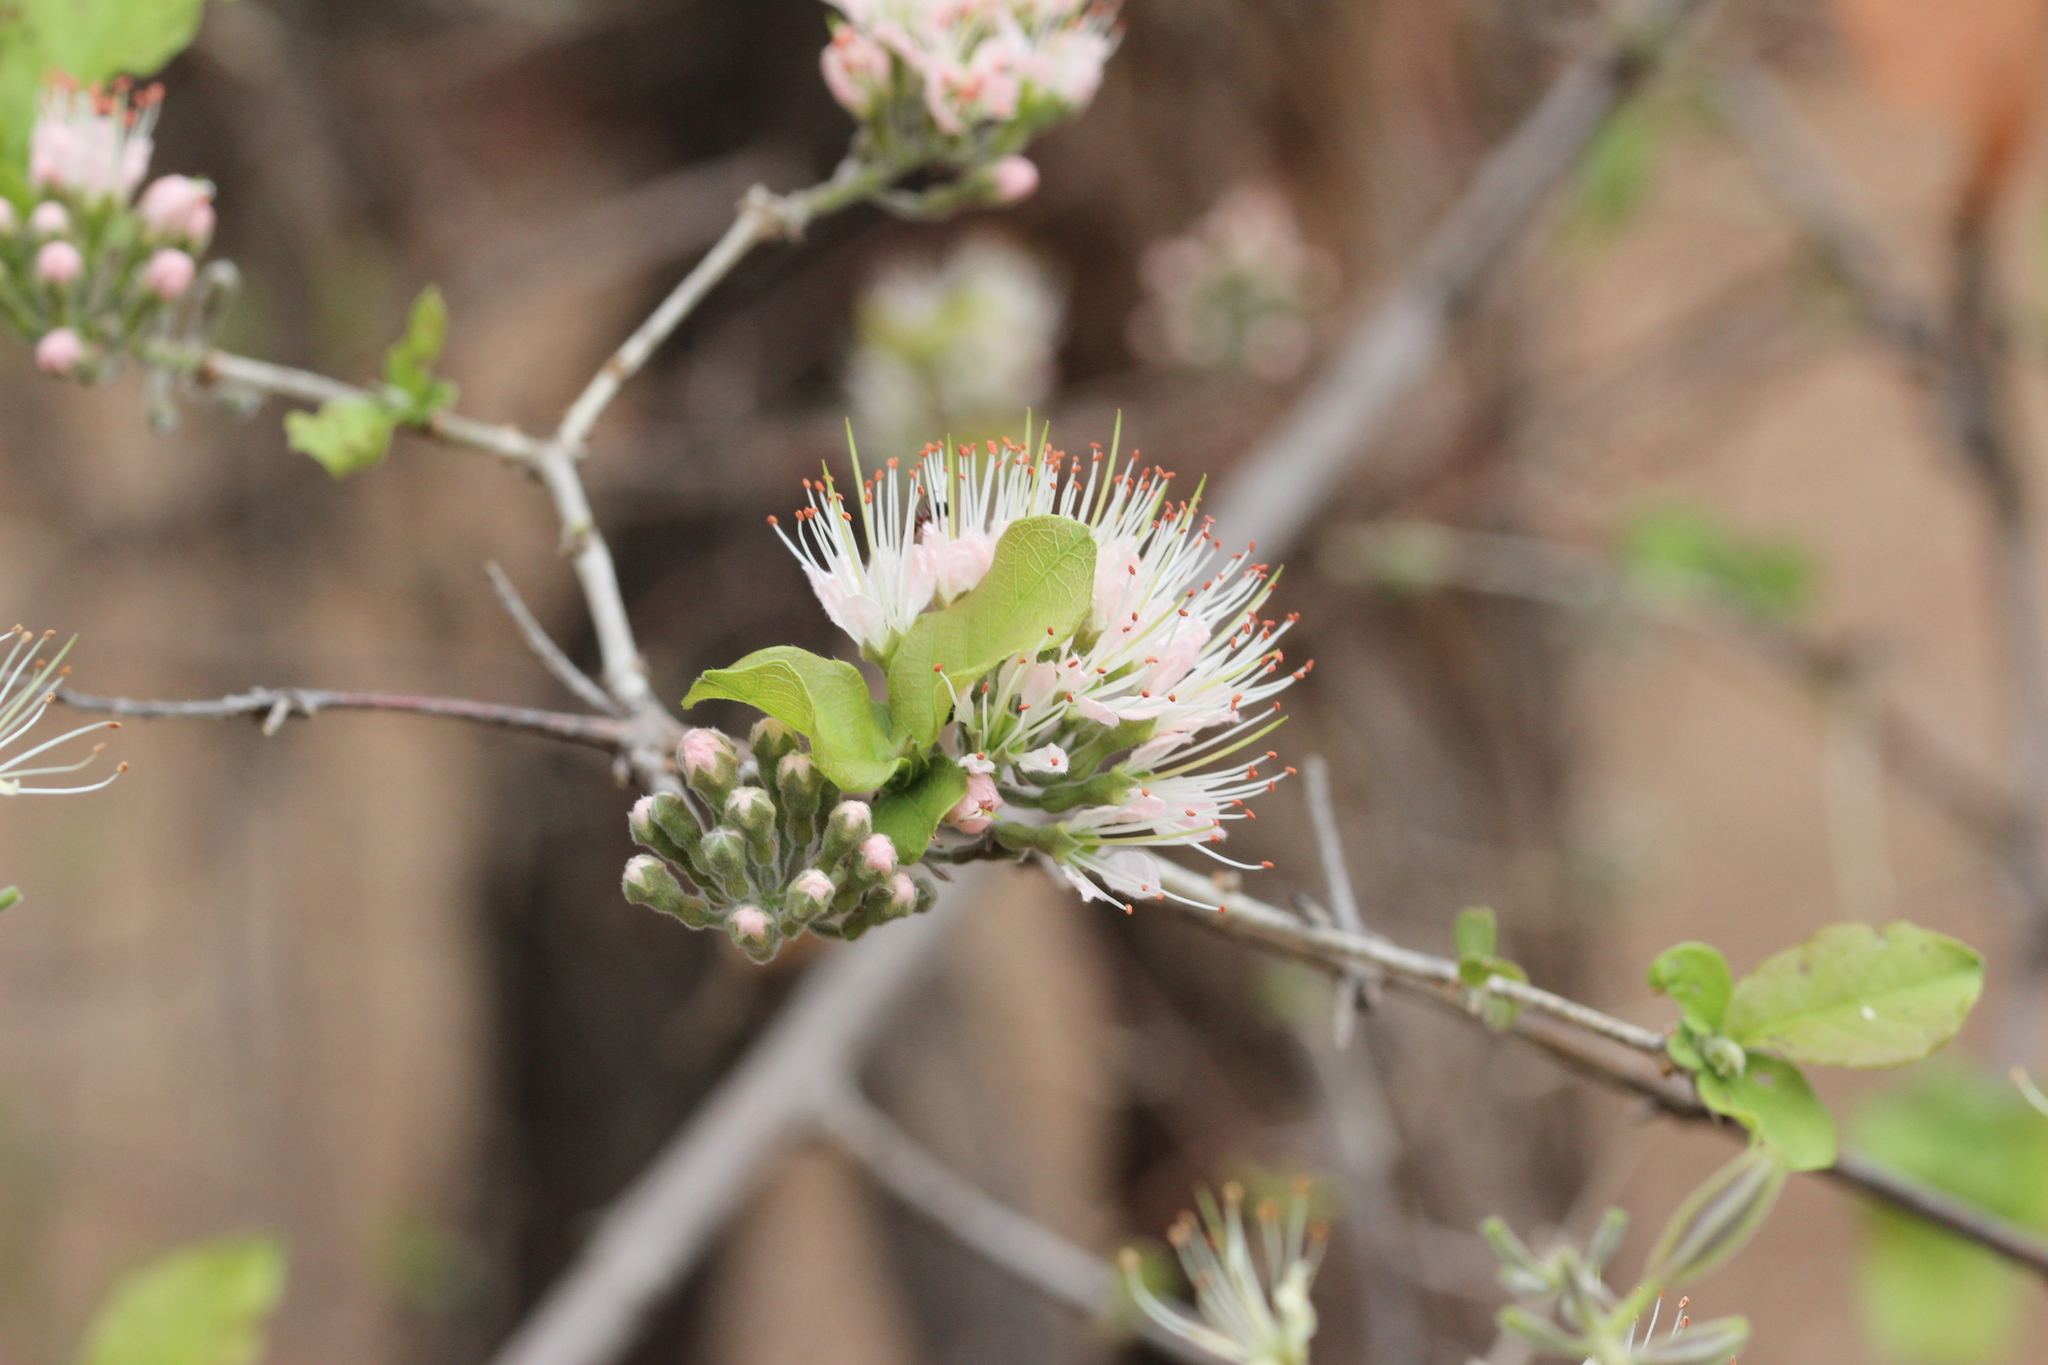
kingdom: Plantae
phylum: Tracheophyta
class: Magnoliopsida
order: Myrtales
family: Combretaceae
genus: Combretum
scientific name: Combretum mossambicense
